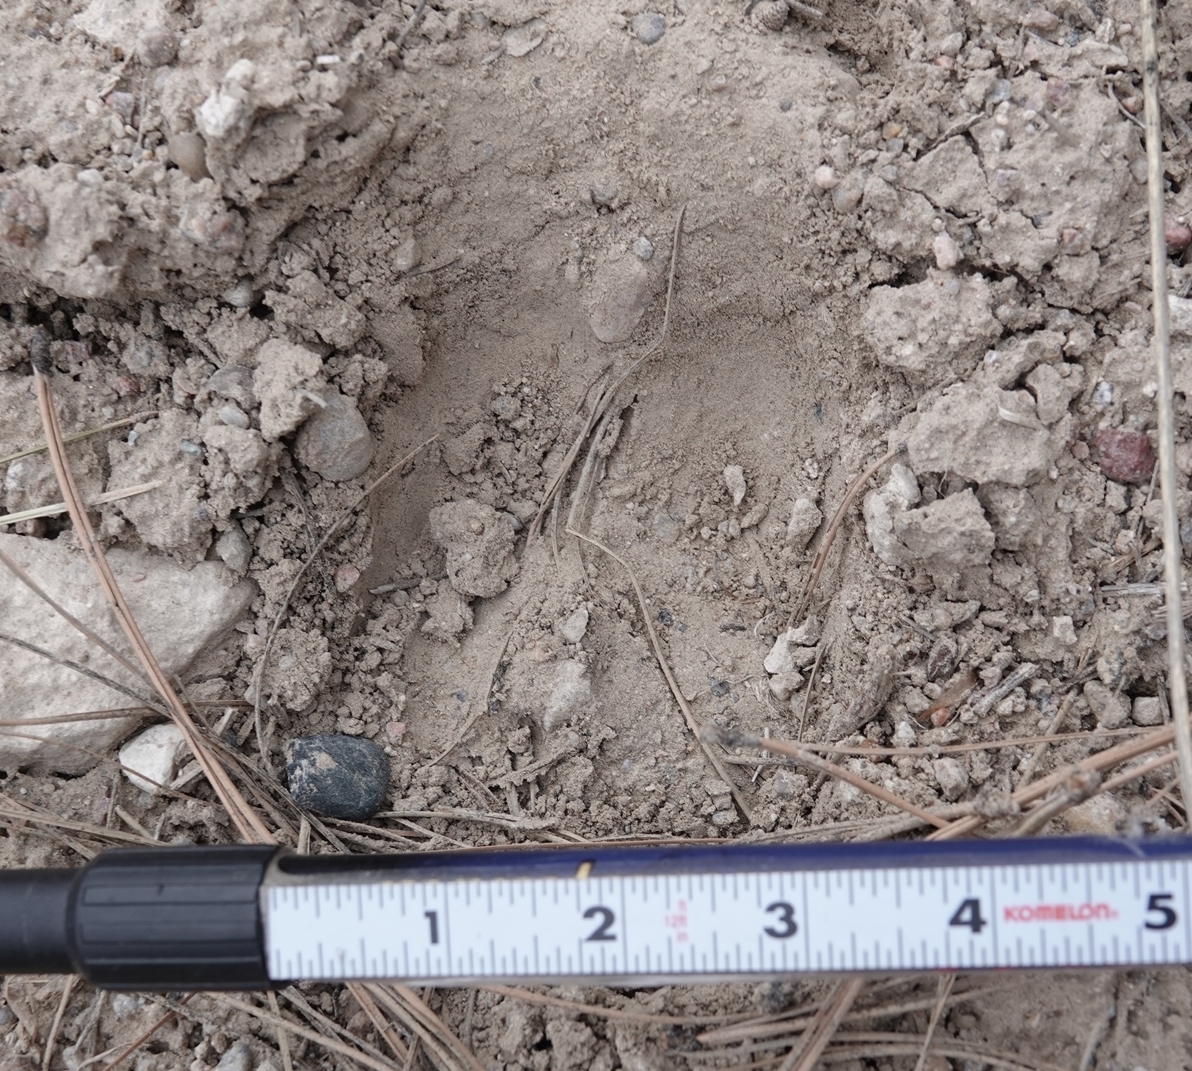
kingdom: Animalia
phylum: Chordata
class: Mammalia
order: Artiodactyla
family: Cervidae
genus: Alces
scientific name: Alces alces
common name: Moose
